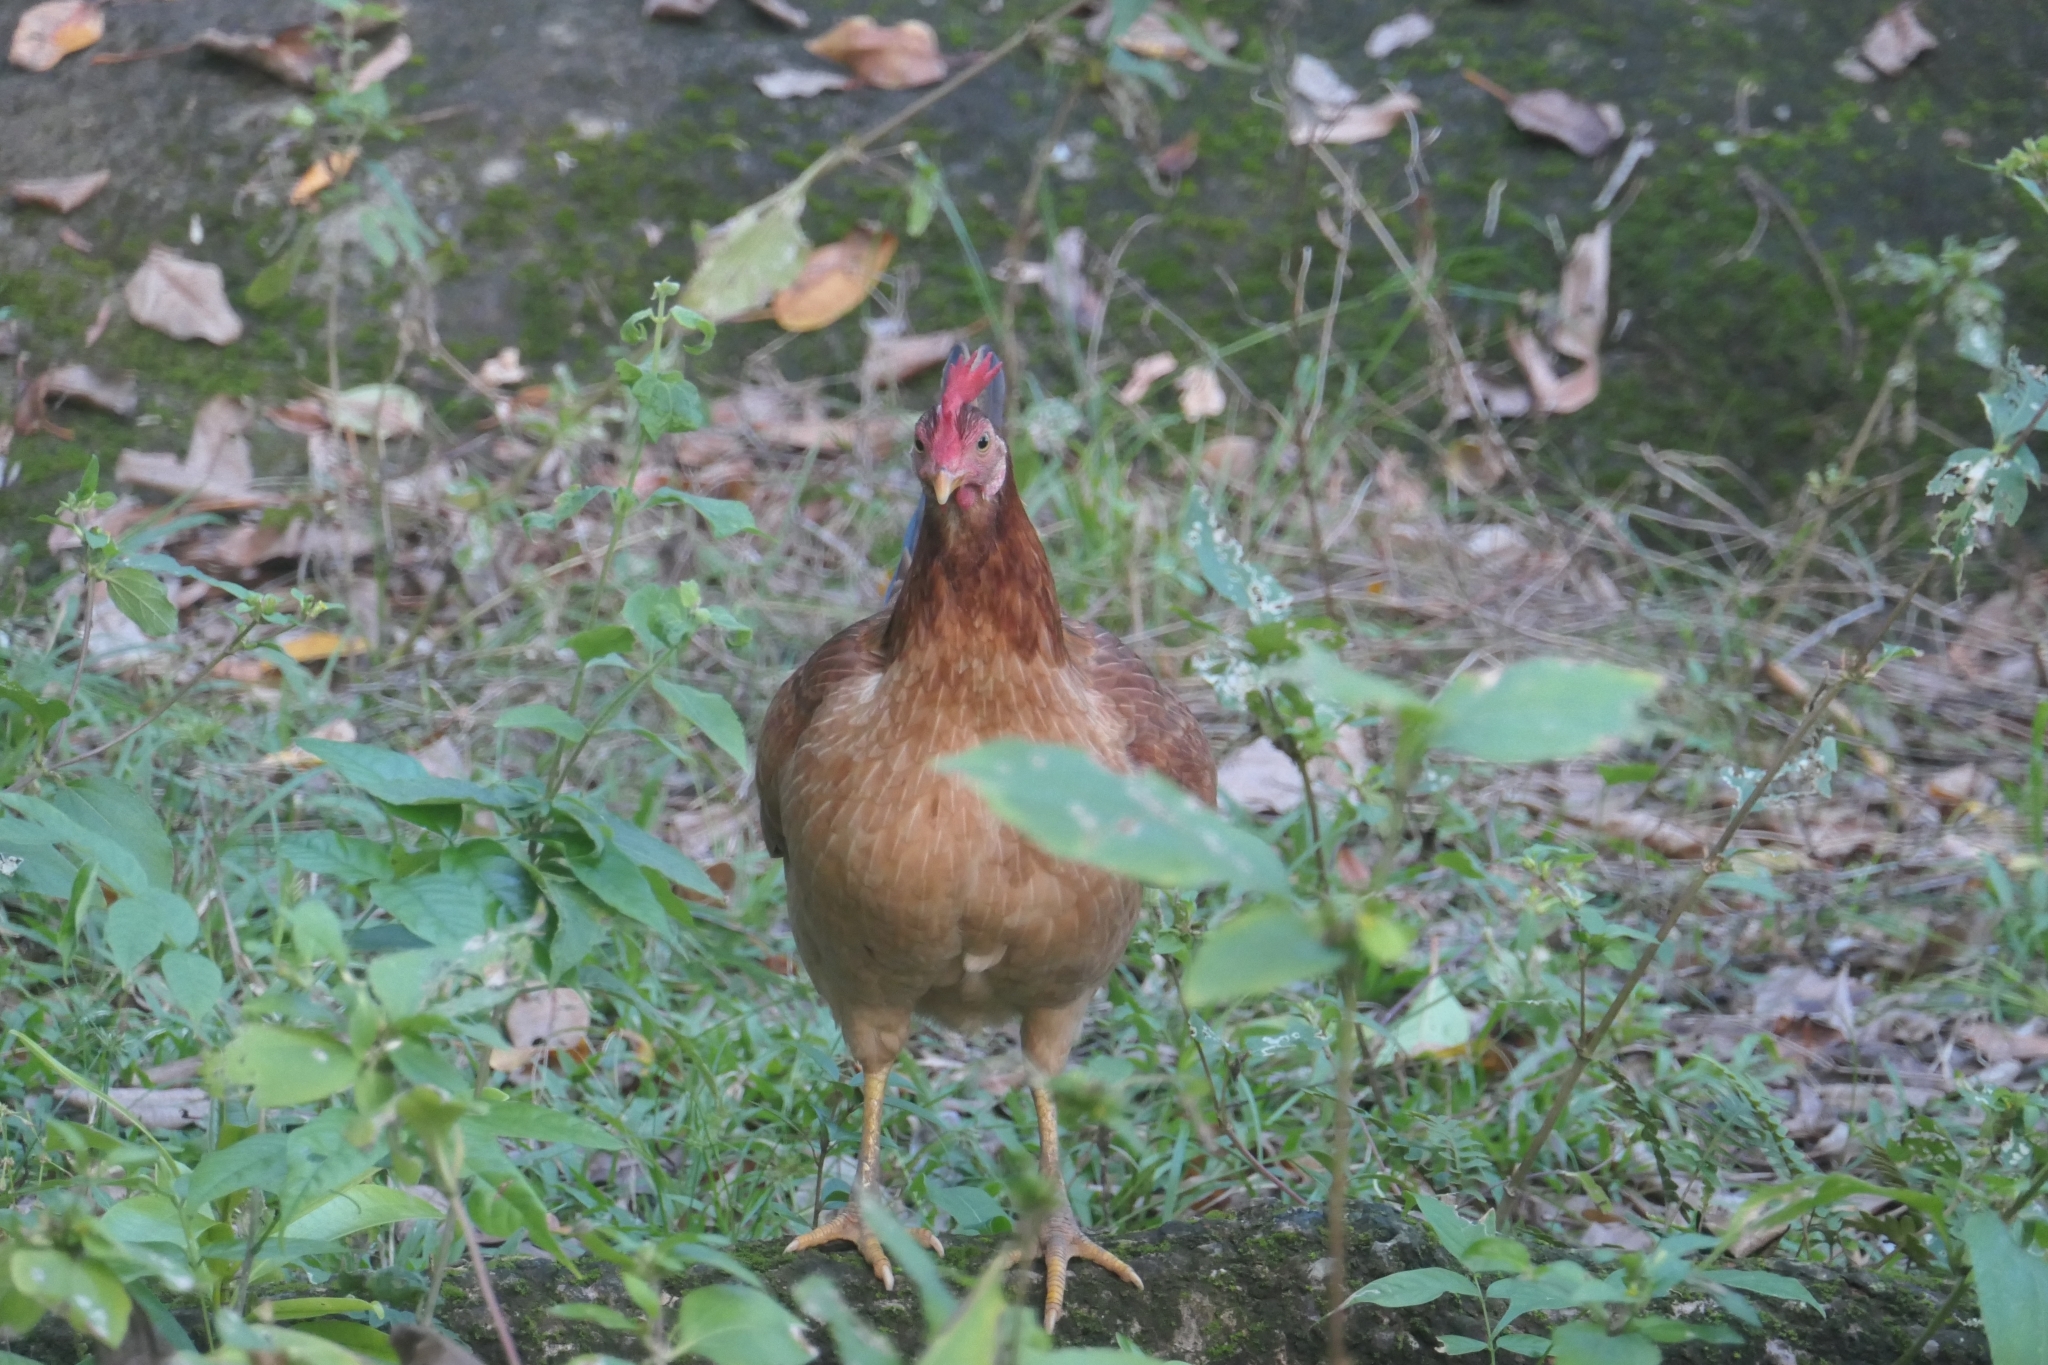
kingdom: Animalia
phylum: Chordata
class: Aves
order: Galliformes
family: Phasianidae
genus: Gallus
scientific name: Gallus gallus
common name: Red junglefowl
